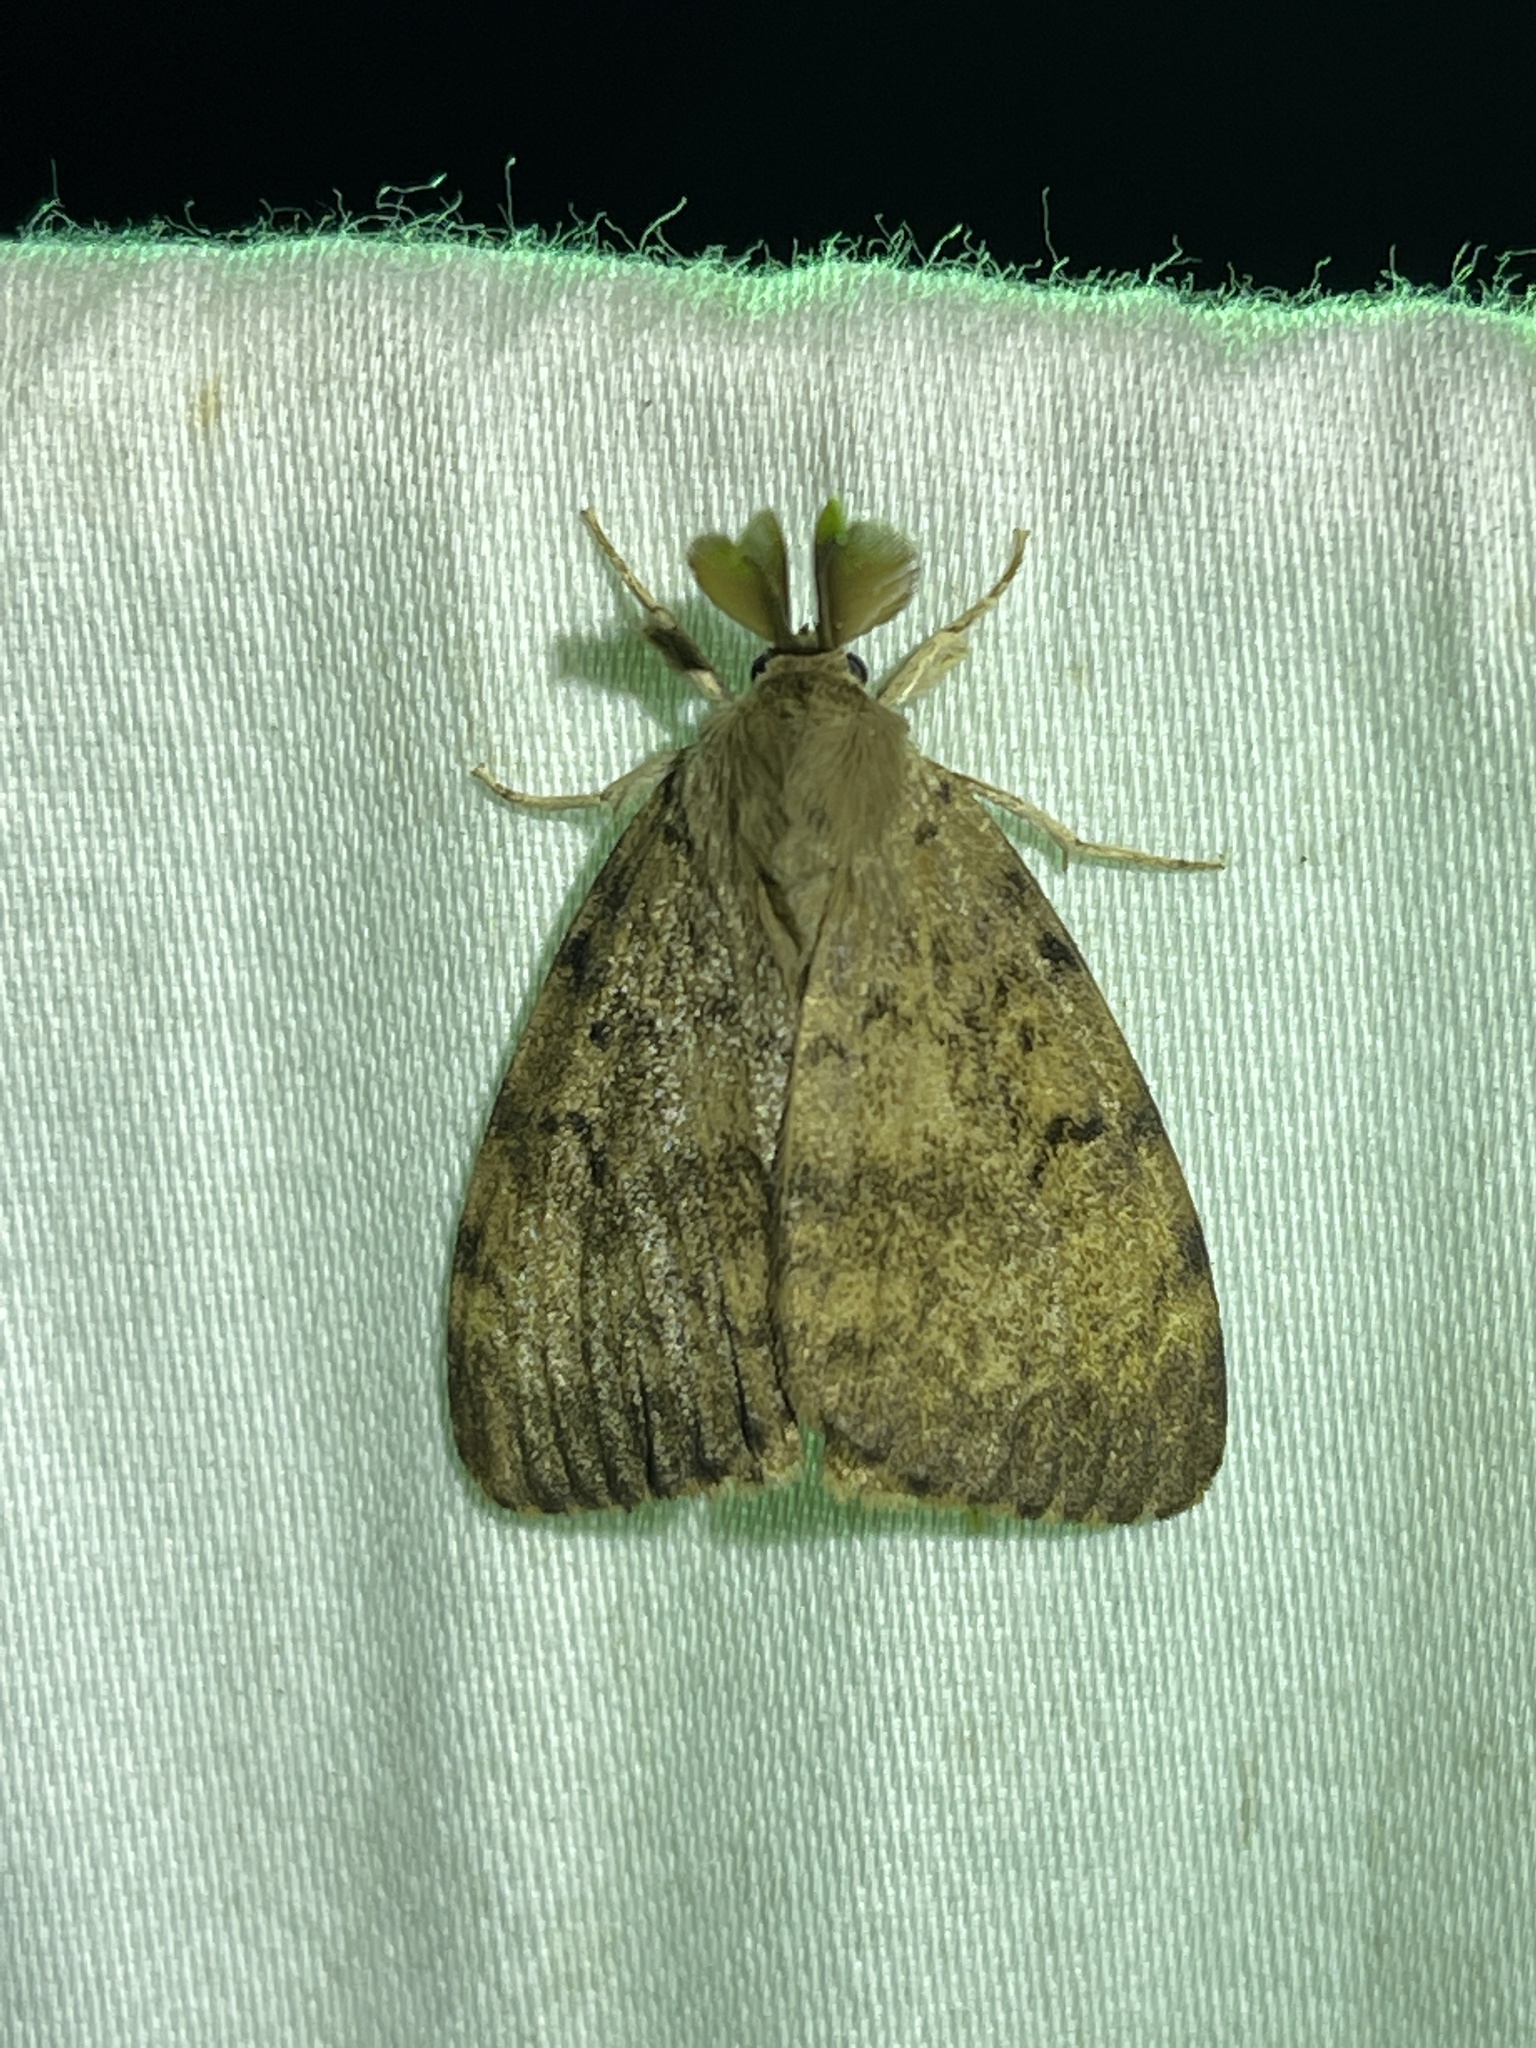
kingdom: Animalia
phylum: Arthropoda
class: Insecta
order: Lepidoptera
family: Erebidae
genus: Lymantria
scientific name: Lymantria dispar
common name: Gypsy moth
